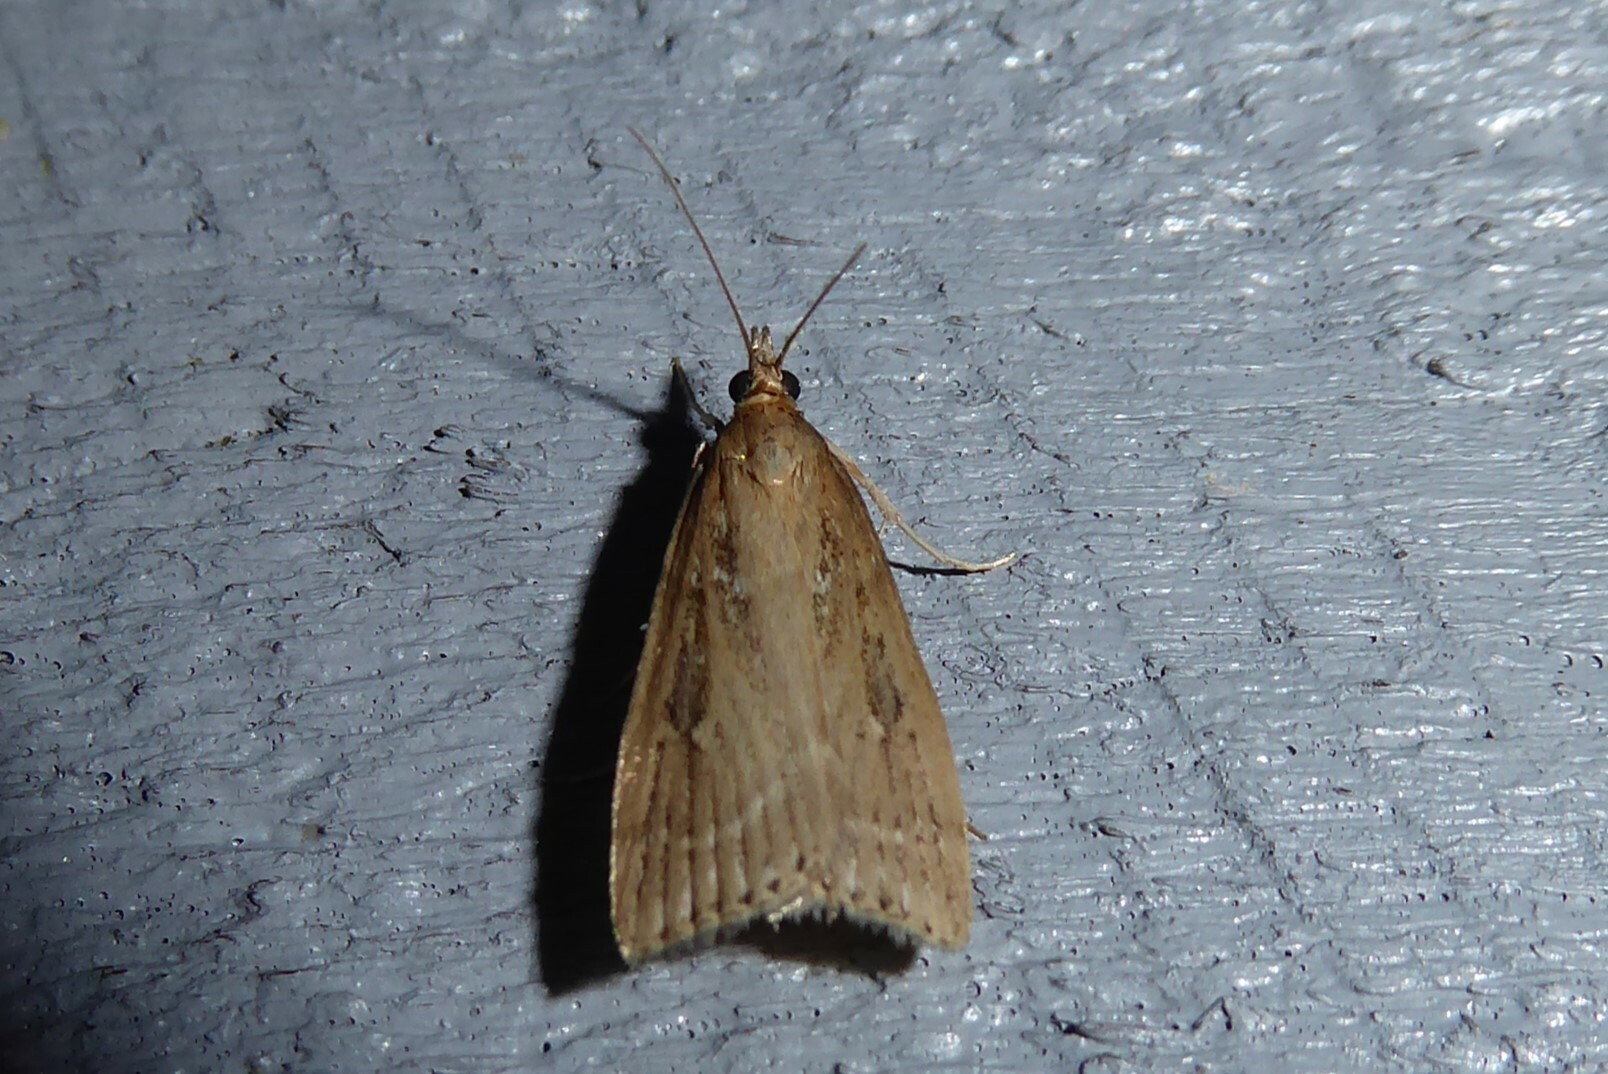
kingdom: Animalia
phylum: Arthropoda
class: Insecta
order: Lepidoptera
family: Crambidae
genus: Eudonia
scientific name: Eudonia octophora
